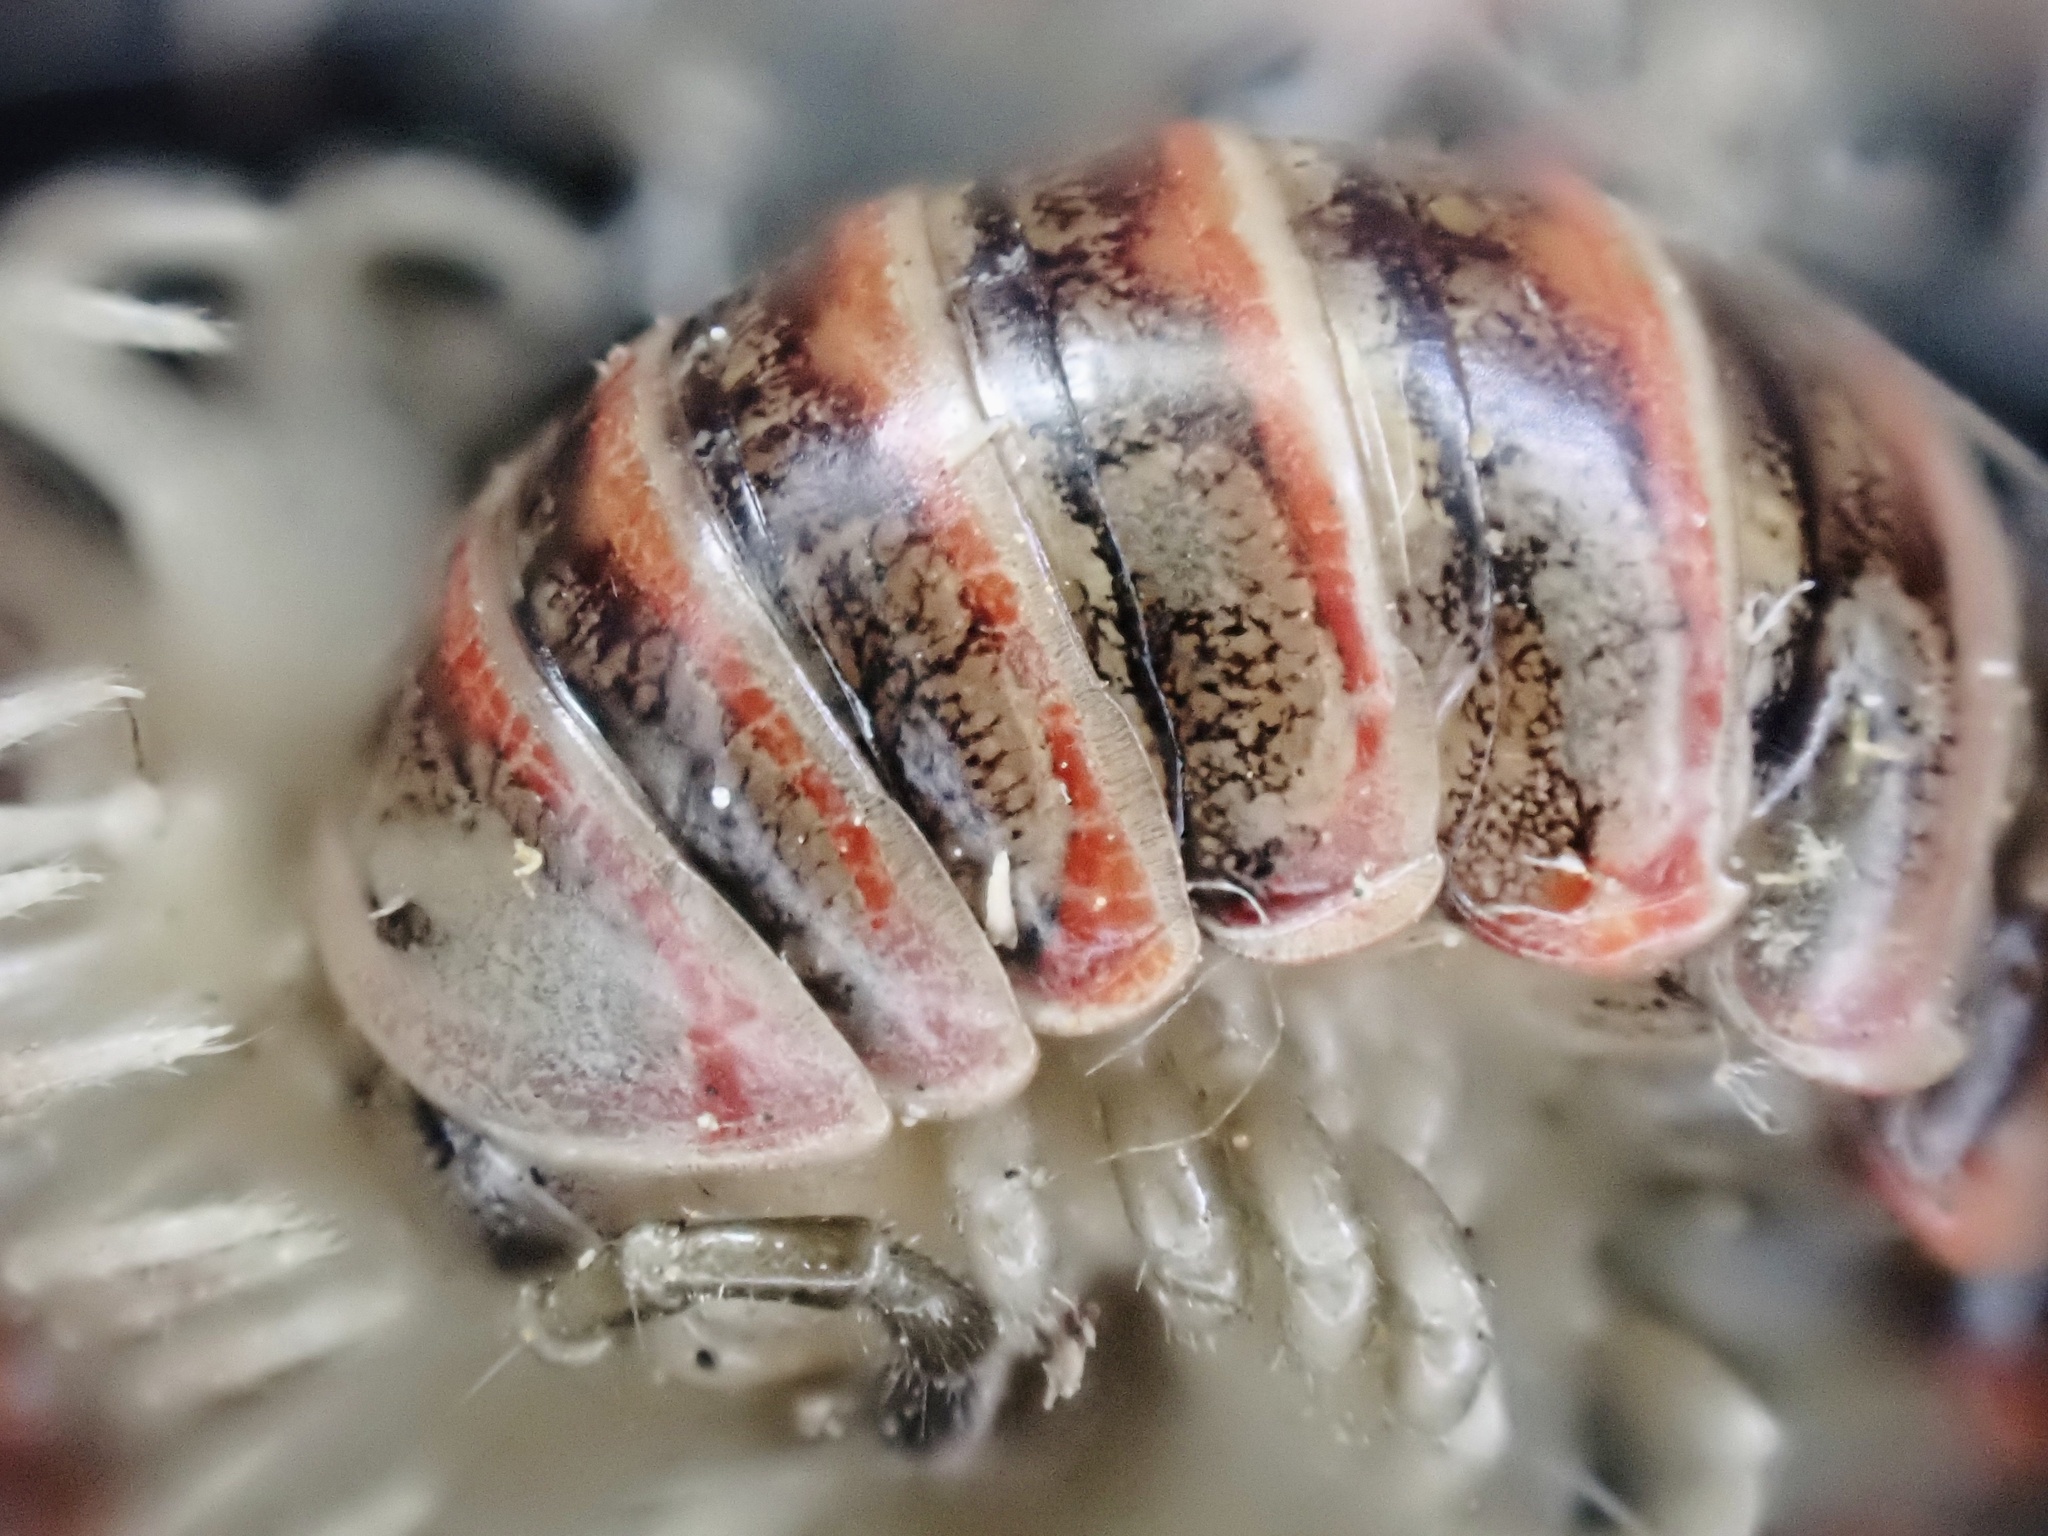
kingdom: Animalia
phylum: Arthropoda
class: Diplopoda
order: Polydesmida
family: Xystodesmidae
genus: Oenomaea
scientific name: Oenomaea pulchella
